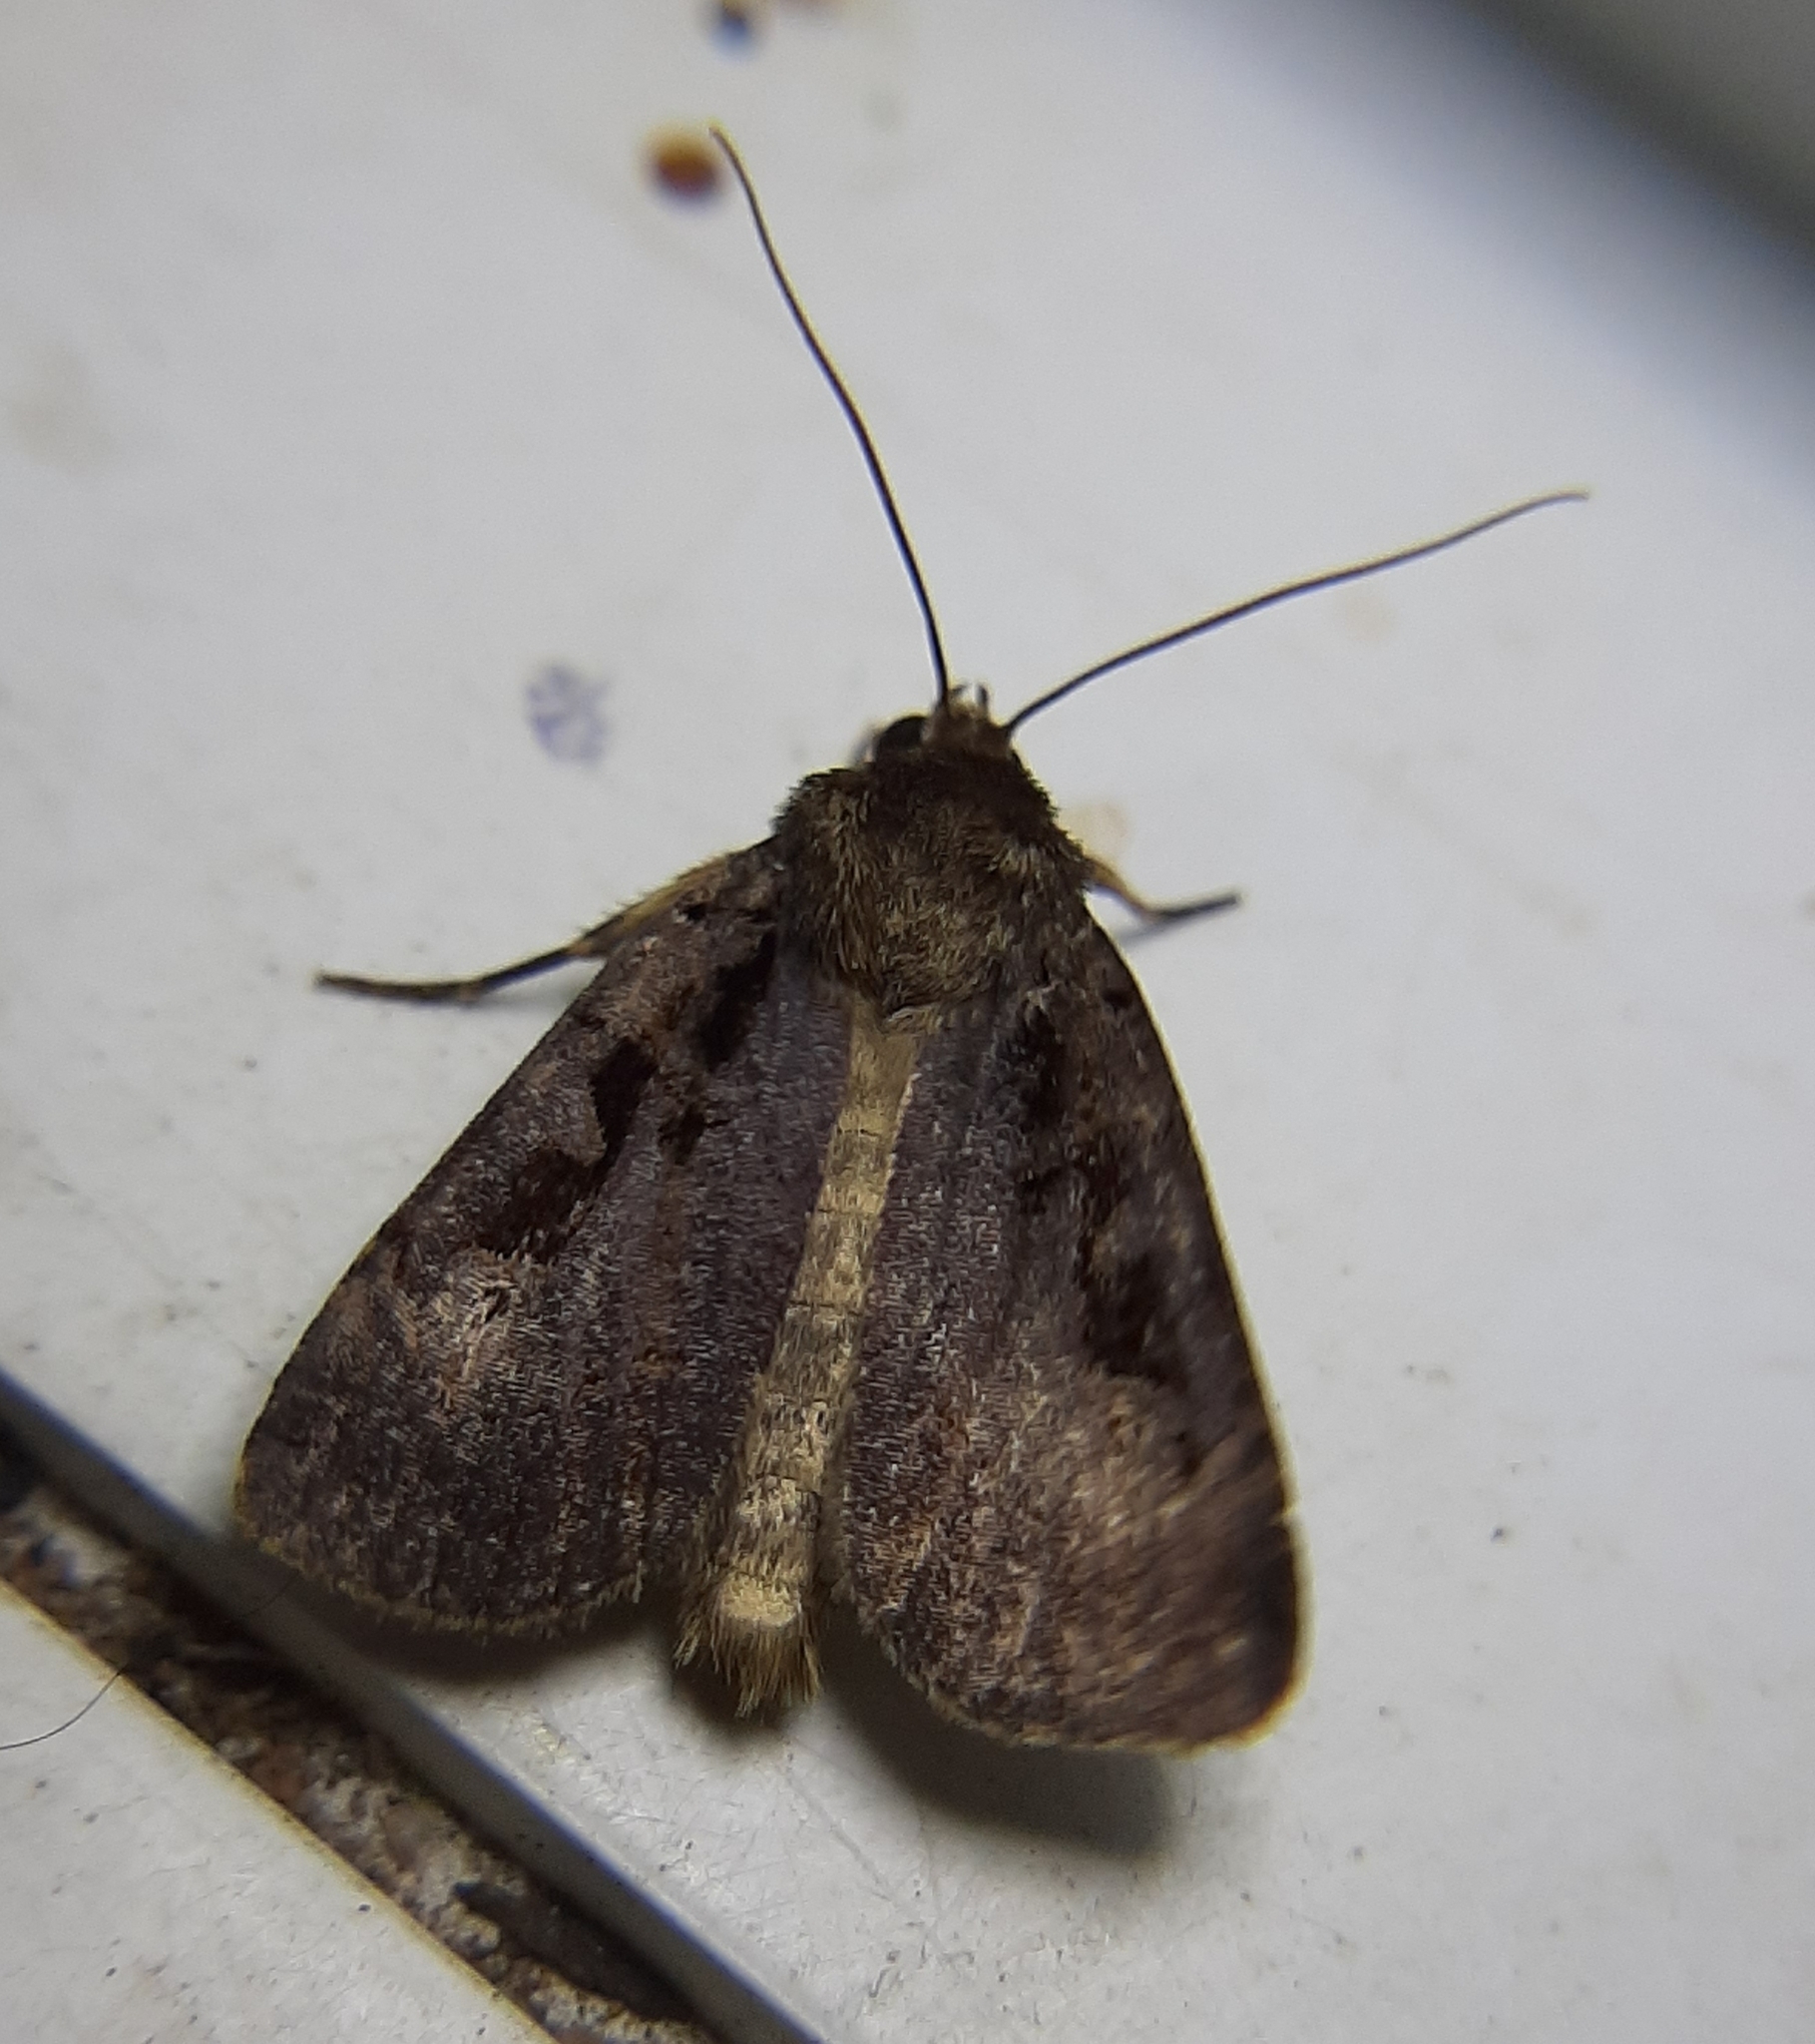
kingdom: Animalia
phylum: Arthropoda
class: Insecta
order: Lepidoptera
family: Noctuidae
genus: Pseudohermonassa
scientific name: Pseudohermonassa tenuicula
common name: Morrison's sooty dart
